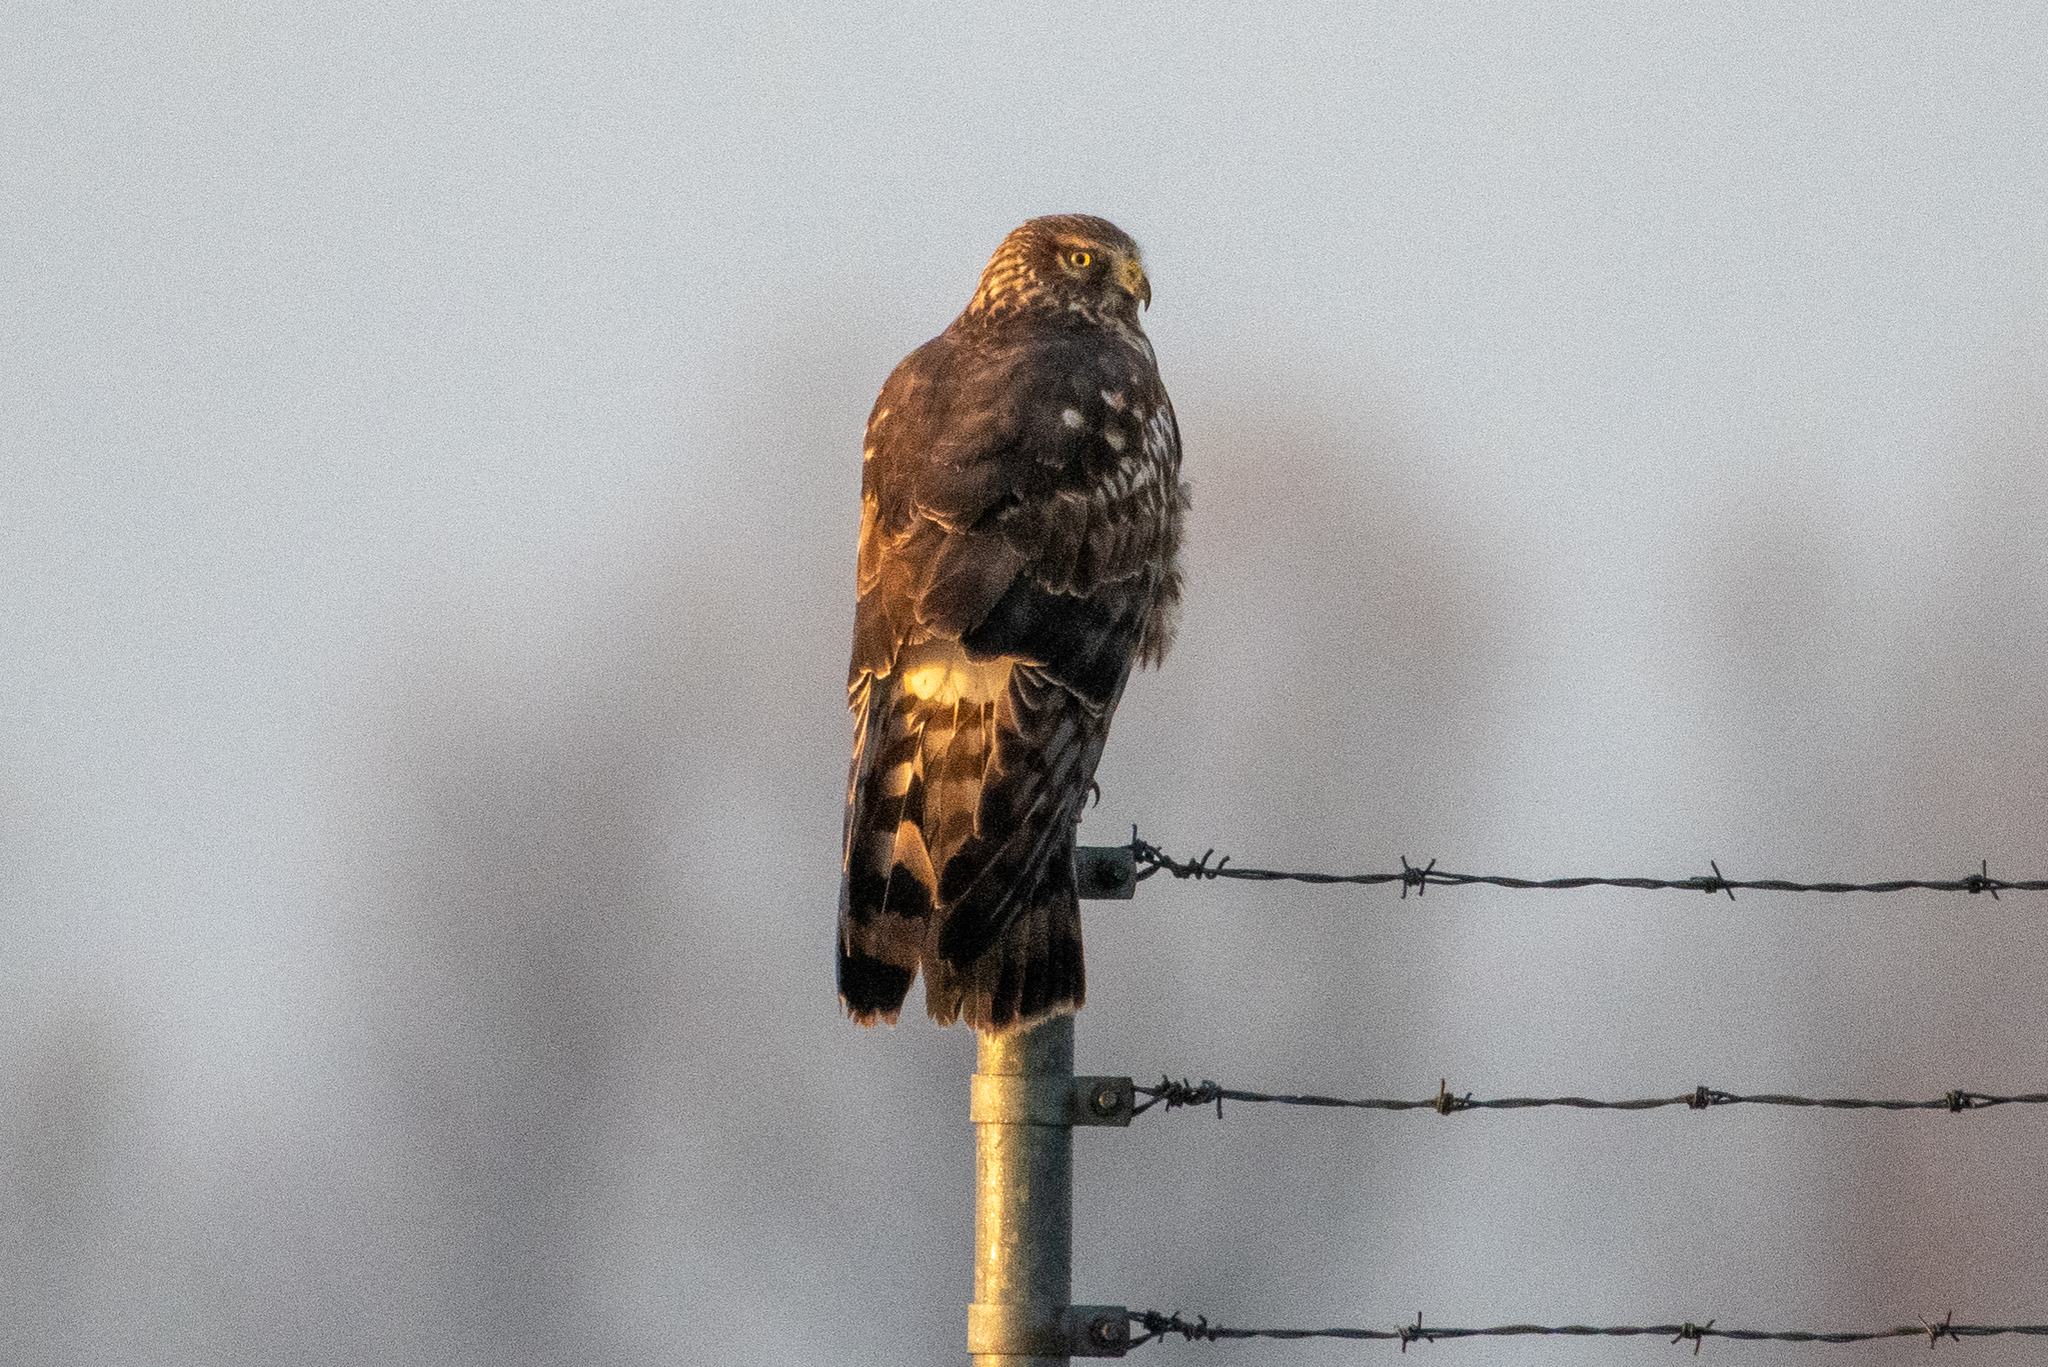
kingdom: Animalia
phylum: Chordata
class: Aves
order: Accipitriformes
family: Accipitridae
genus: Circus
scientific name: Circus cyaneus
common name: Hen harrier
